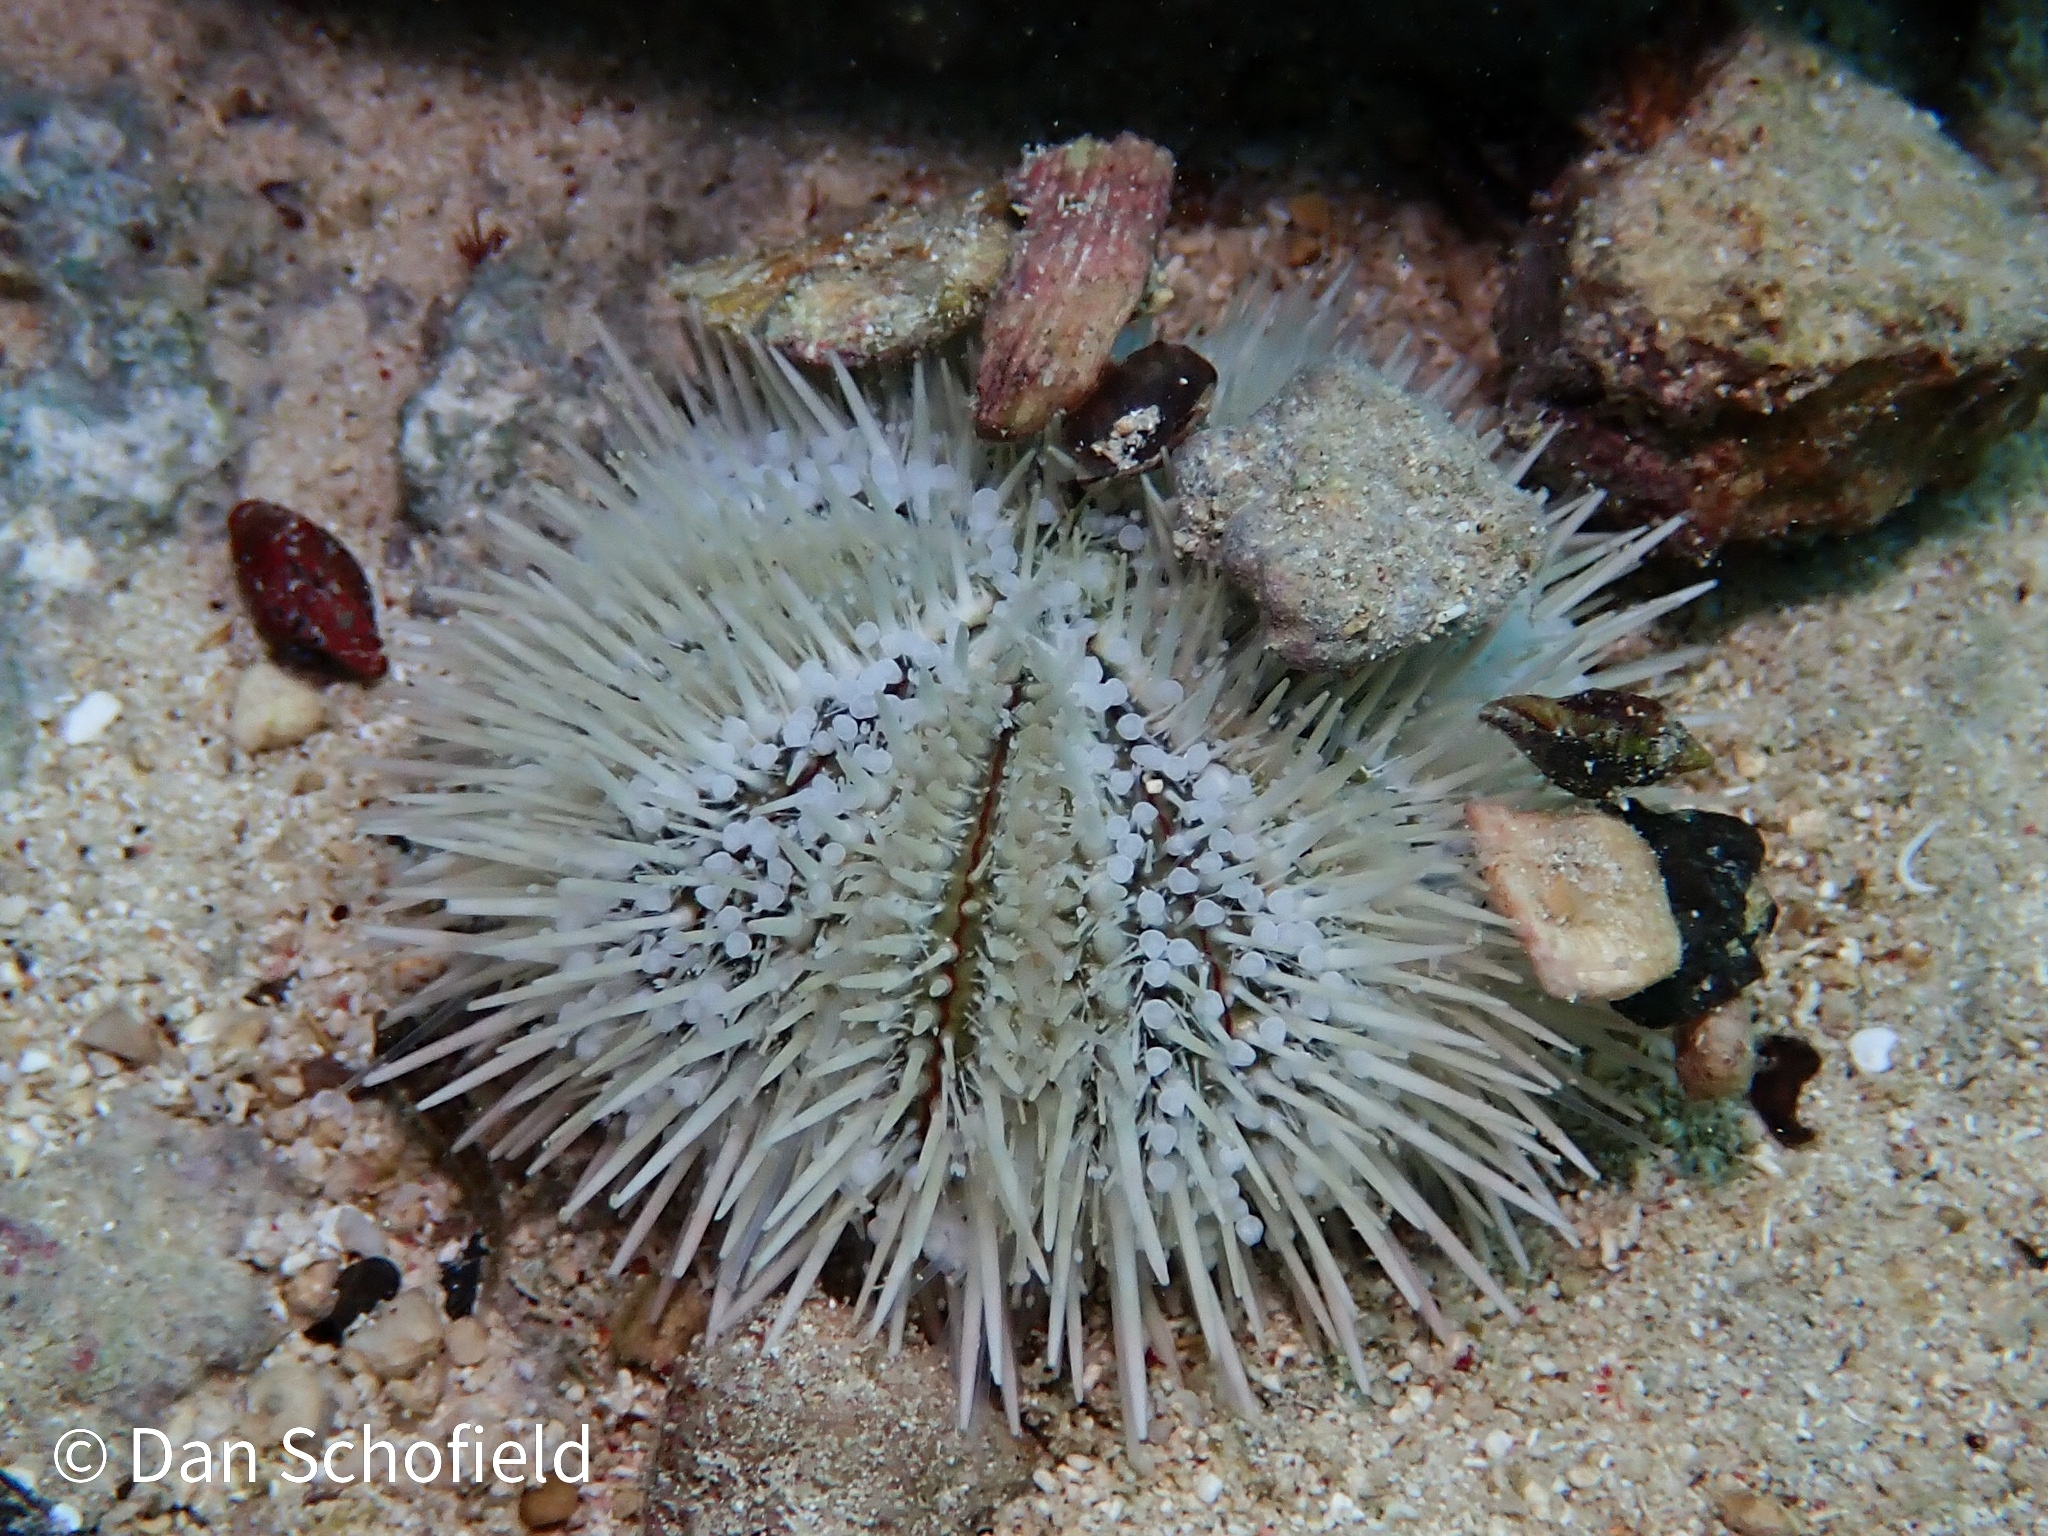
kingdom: Animalia
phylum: Echinodermata
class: Echinoidea
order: Camarodonta
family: Toxopneustidae
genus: Lytechinus
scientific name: Lytechinus variegatus
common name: Variegated urchin
